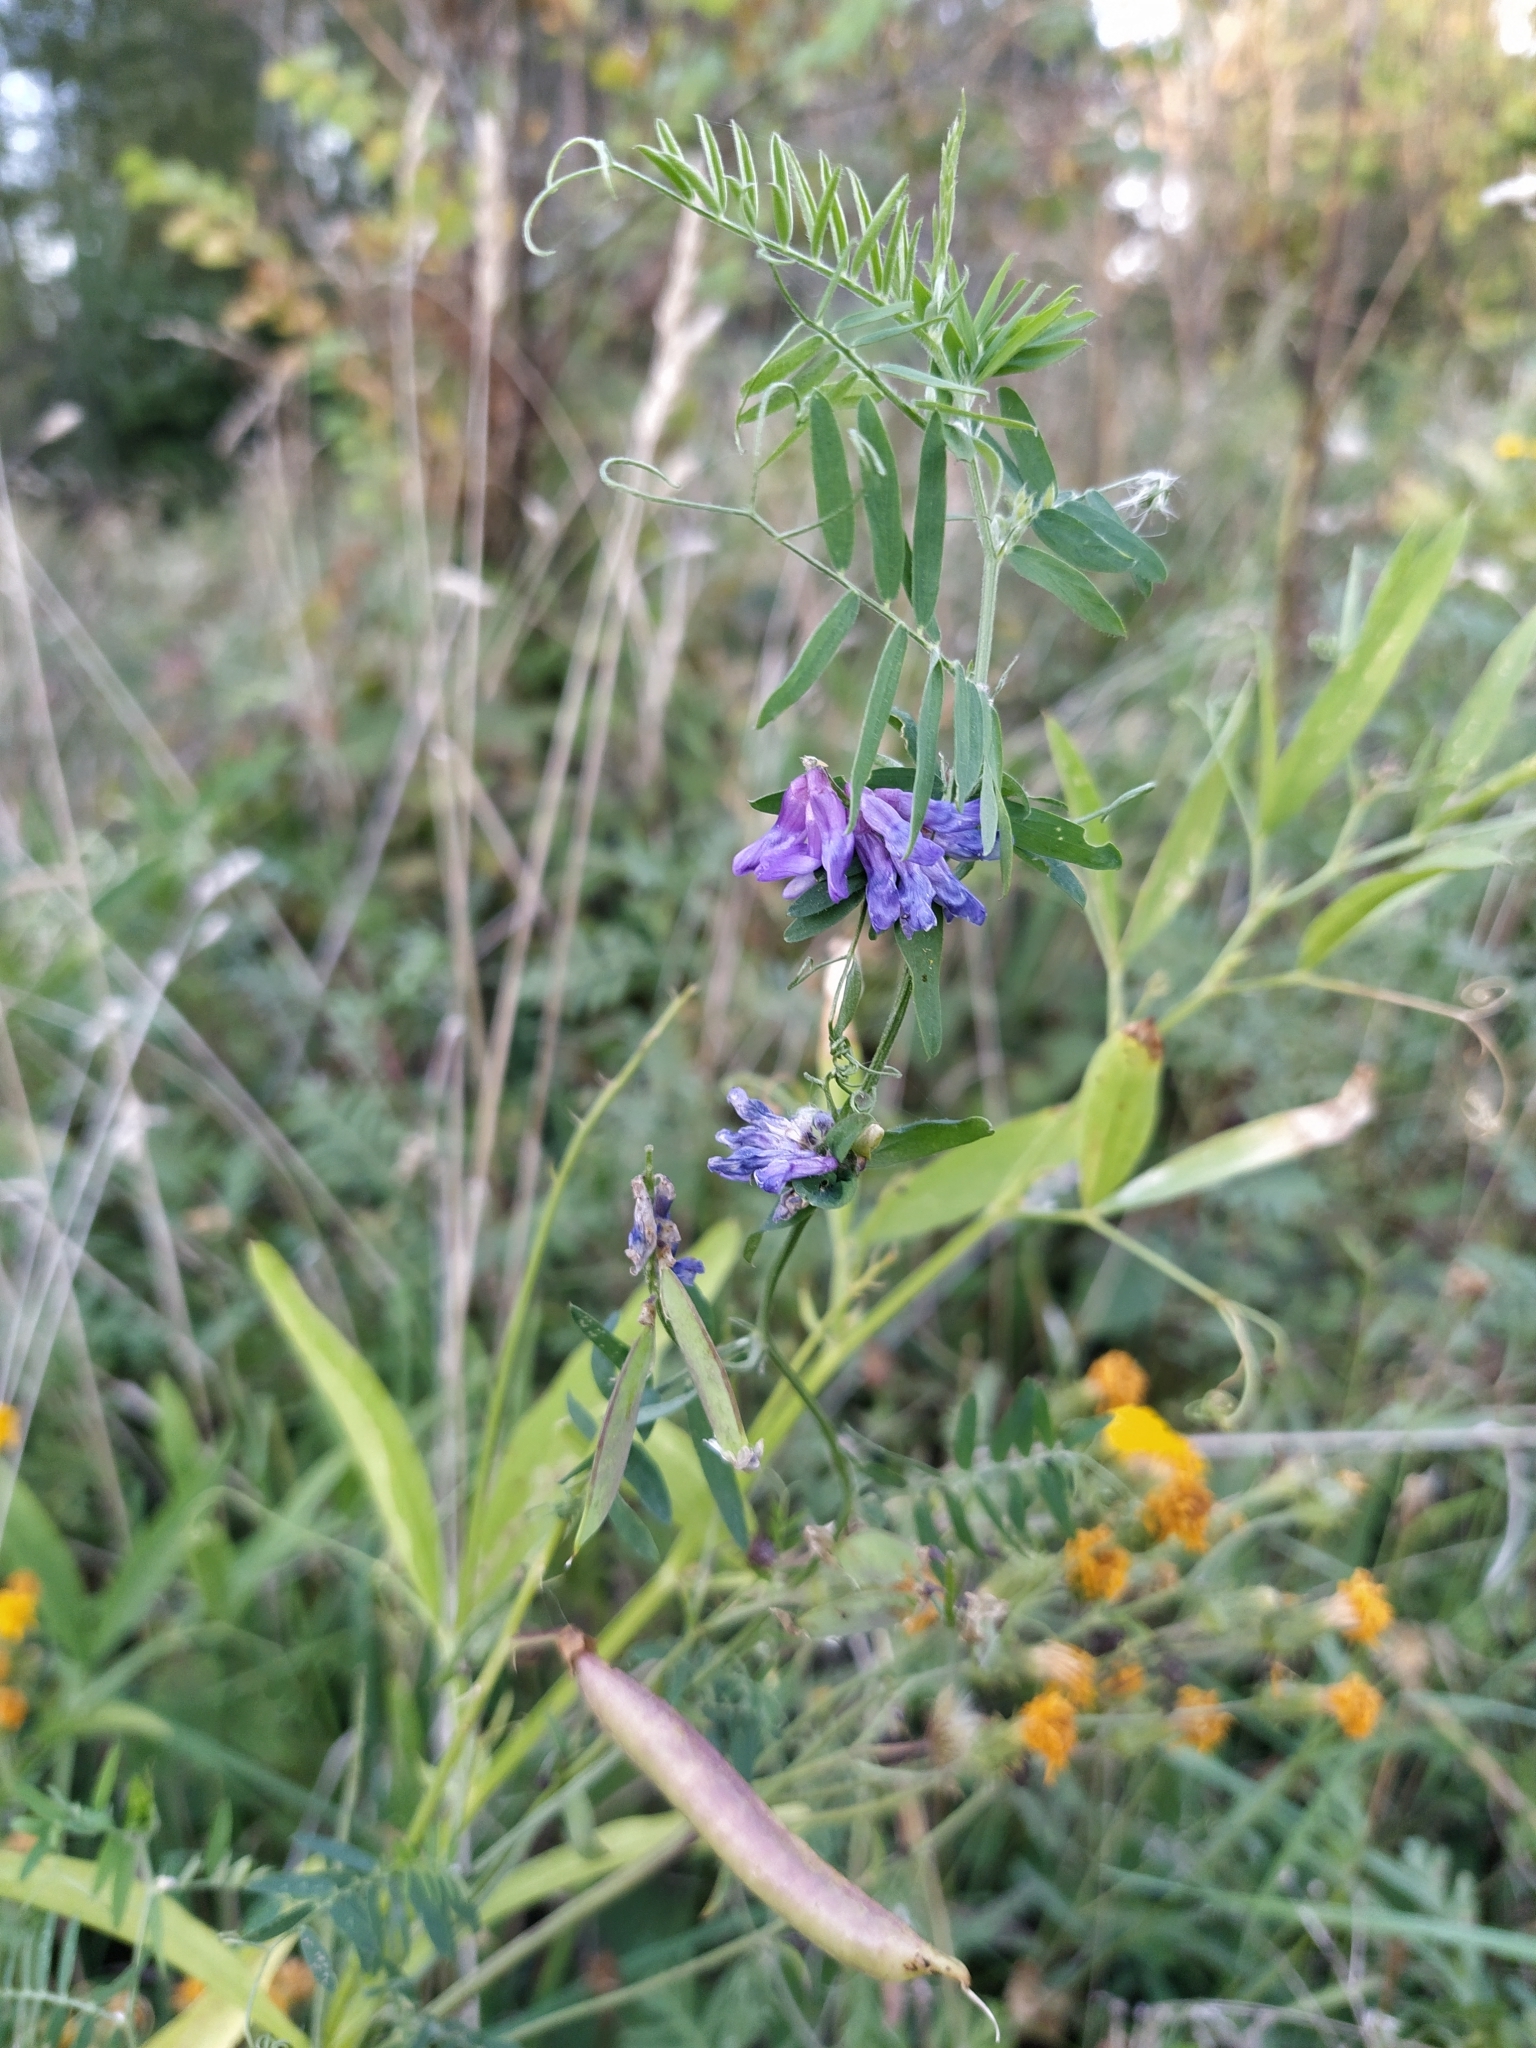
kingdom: Plantae
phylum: Tracheophyta
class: Magnoliopsida
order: Fabales
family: Fabaceae
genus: Vicia
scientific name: Vicia cracca
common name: Bird vetch
